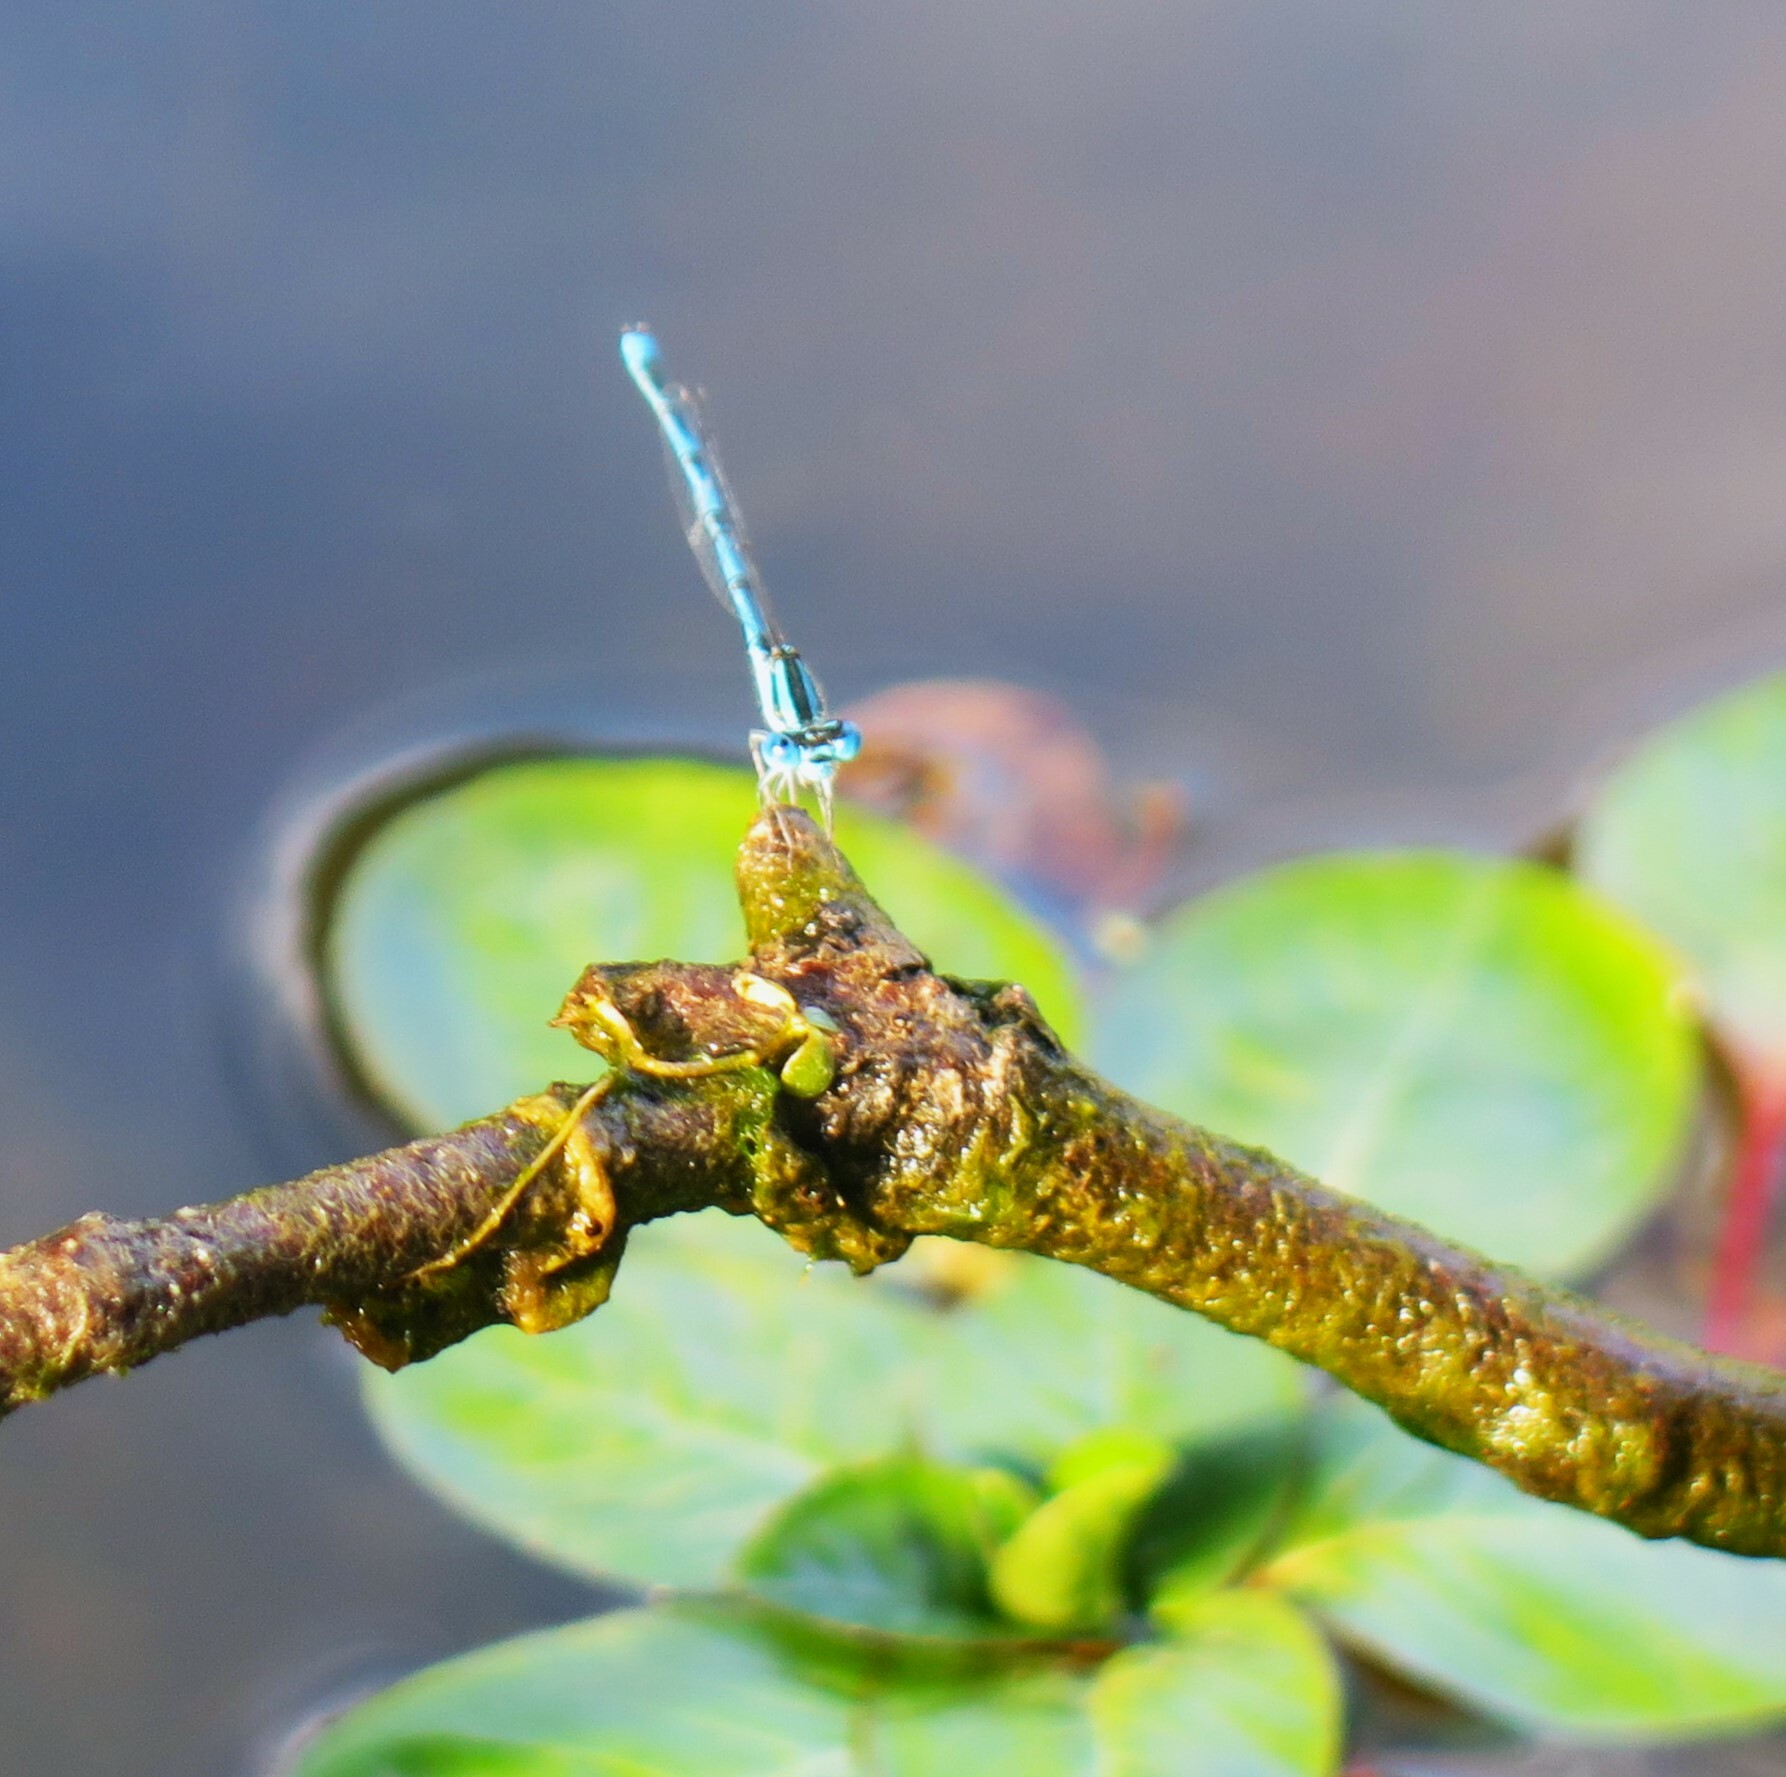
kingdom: Animalia
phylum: Arthropoda
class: Insecta
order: Odonata
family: Coenagrionidae
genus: Erythromma
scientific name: Erythromma lindenii
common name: Blue-eye
